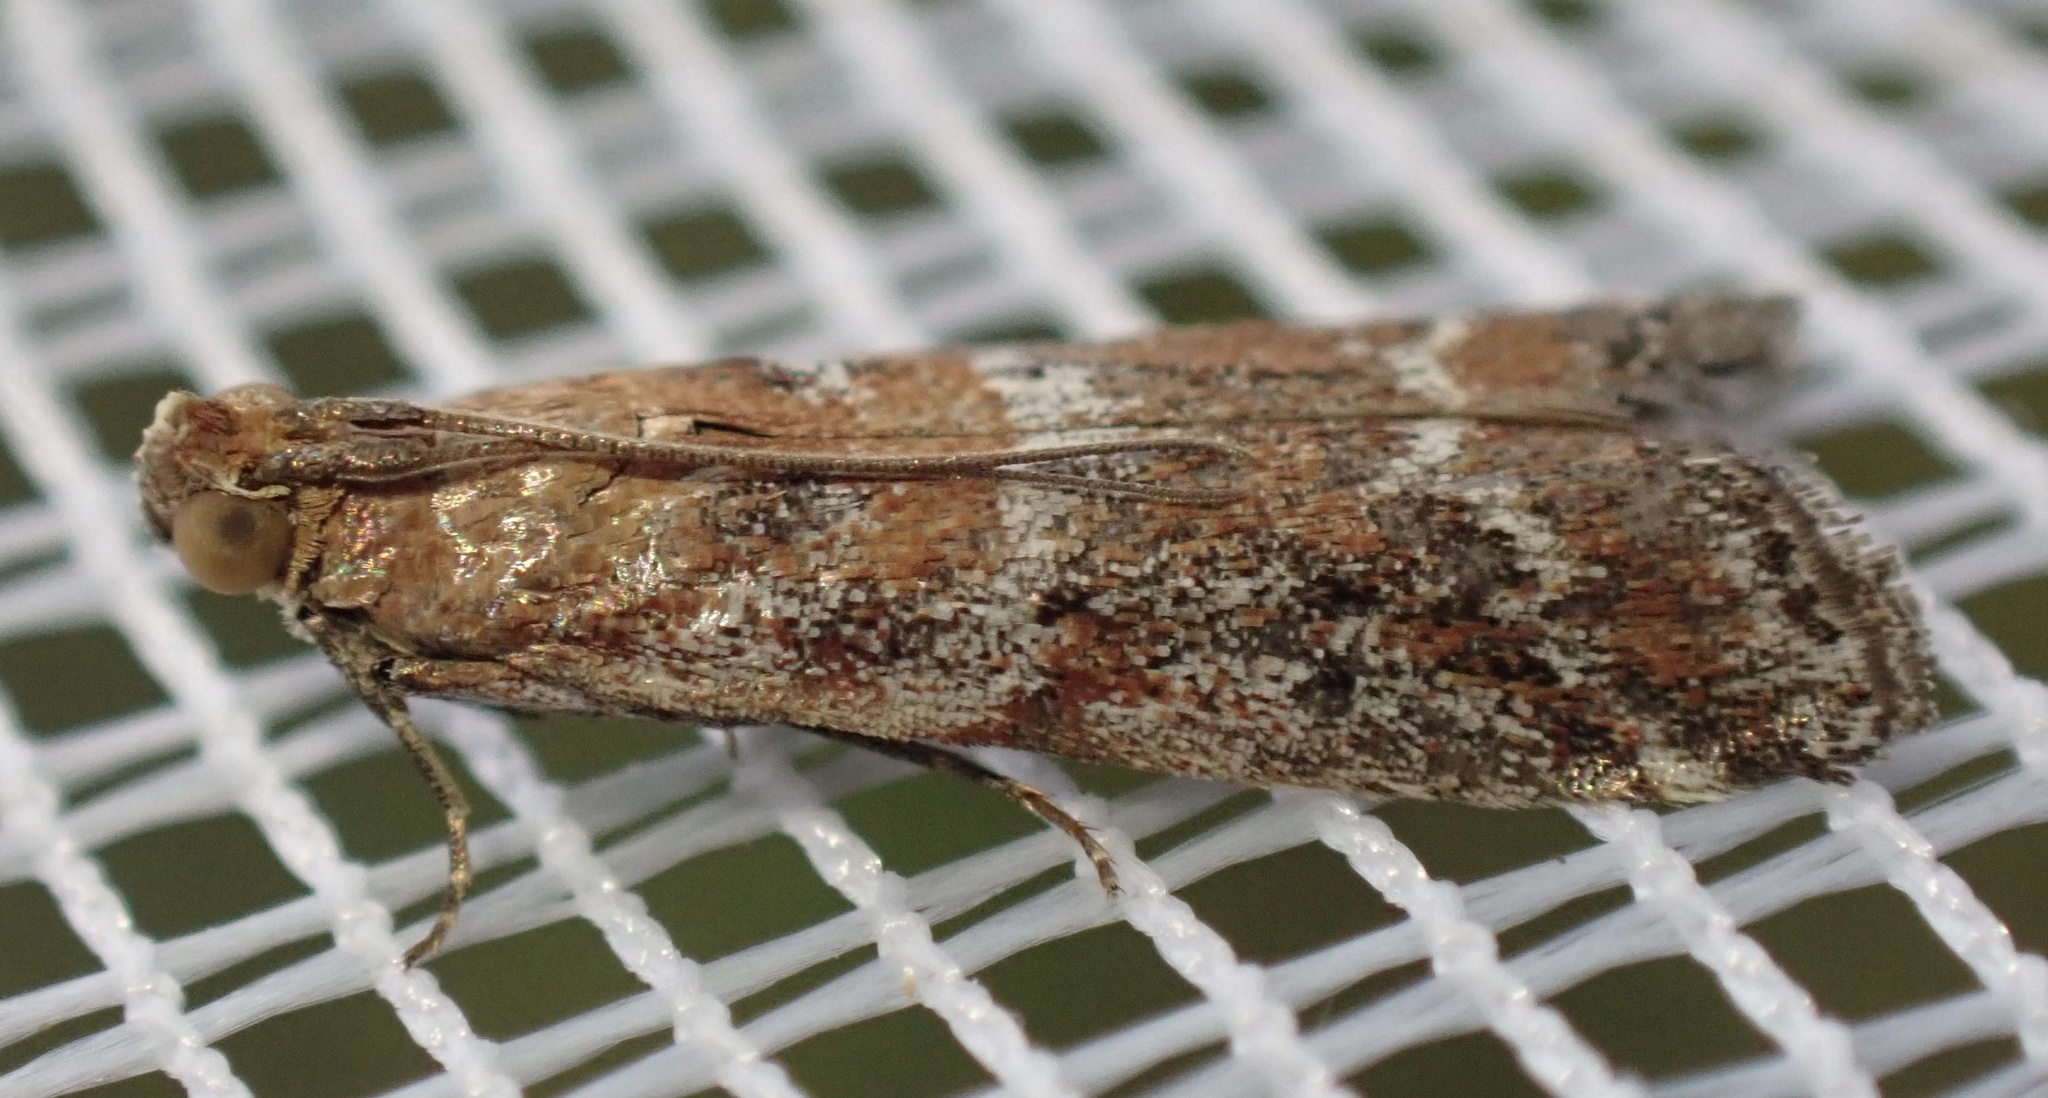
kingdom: Animalia
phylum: Arthropoda
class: Insecta
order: Lepidoptera
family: Pyralidae
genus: Delplanqueia
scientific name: Delplanqueia dilutella
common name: Powdered knot-horn
